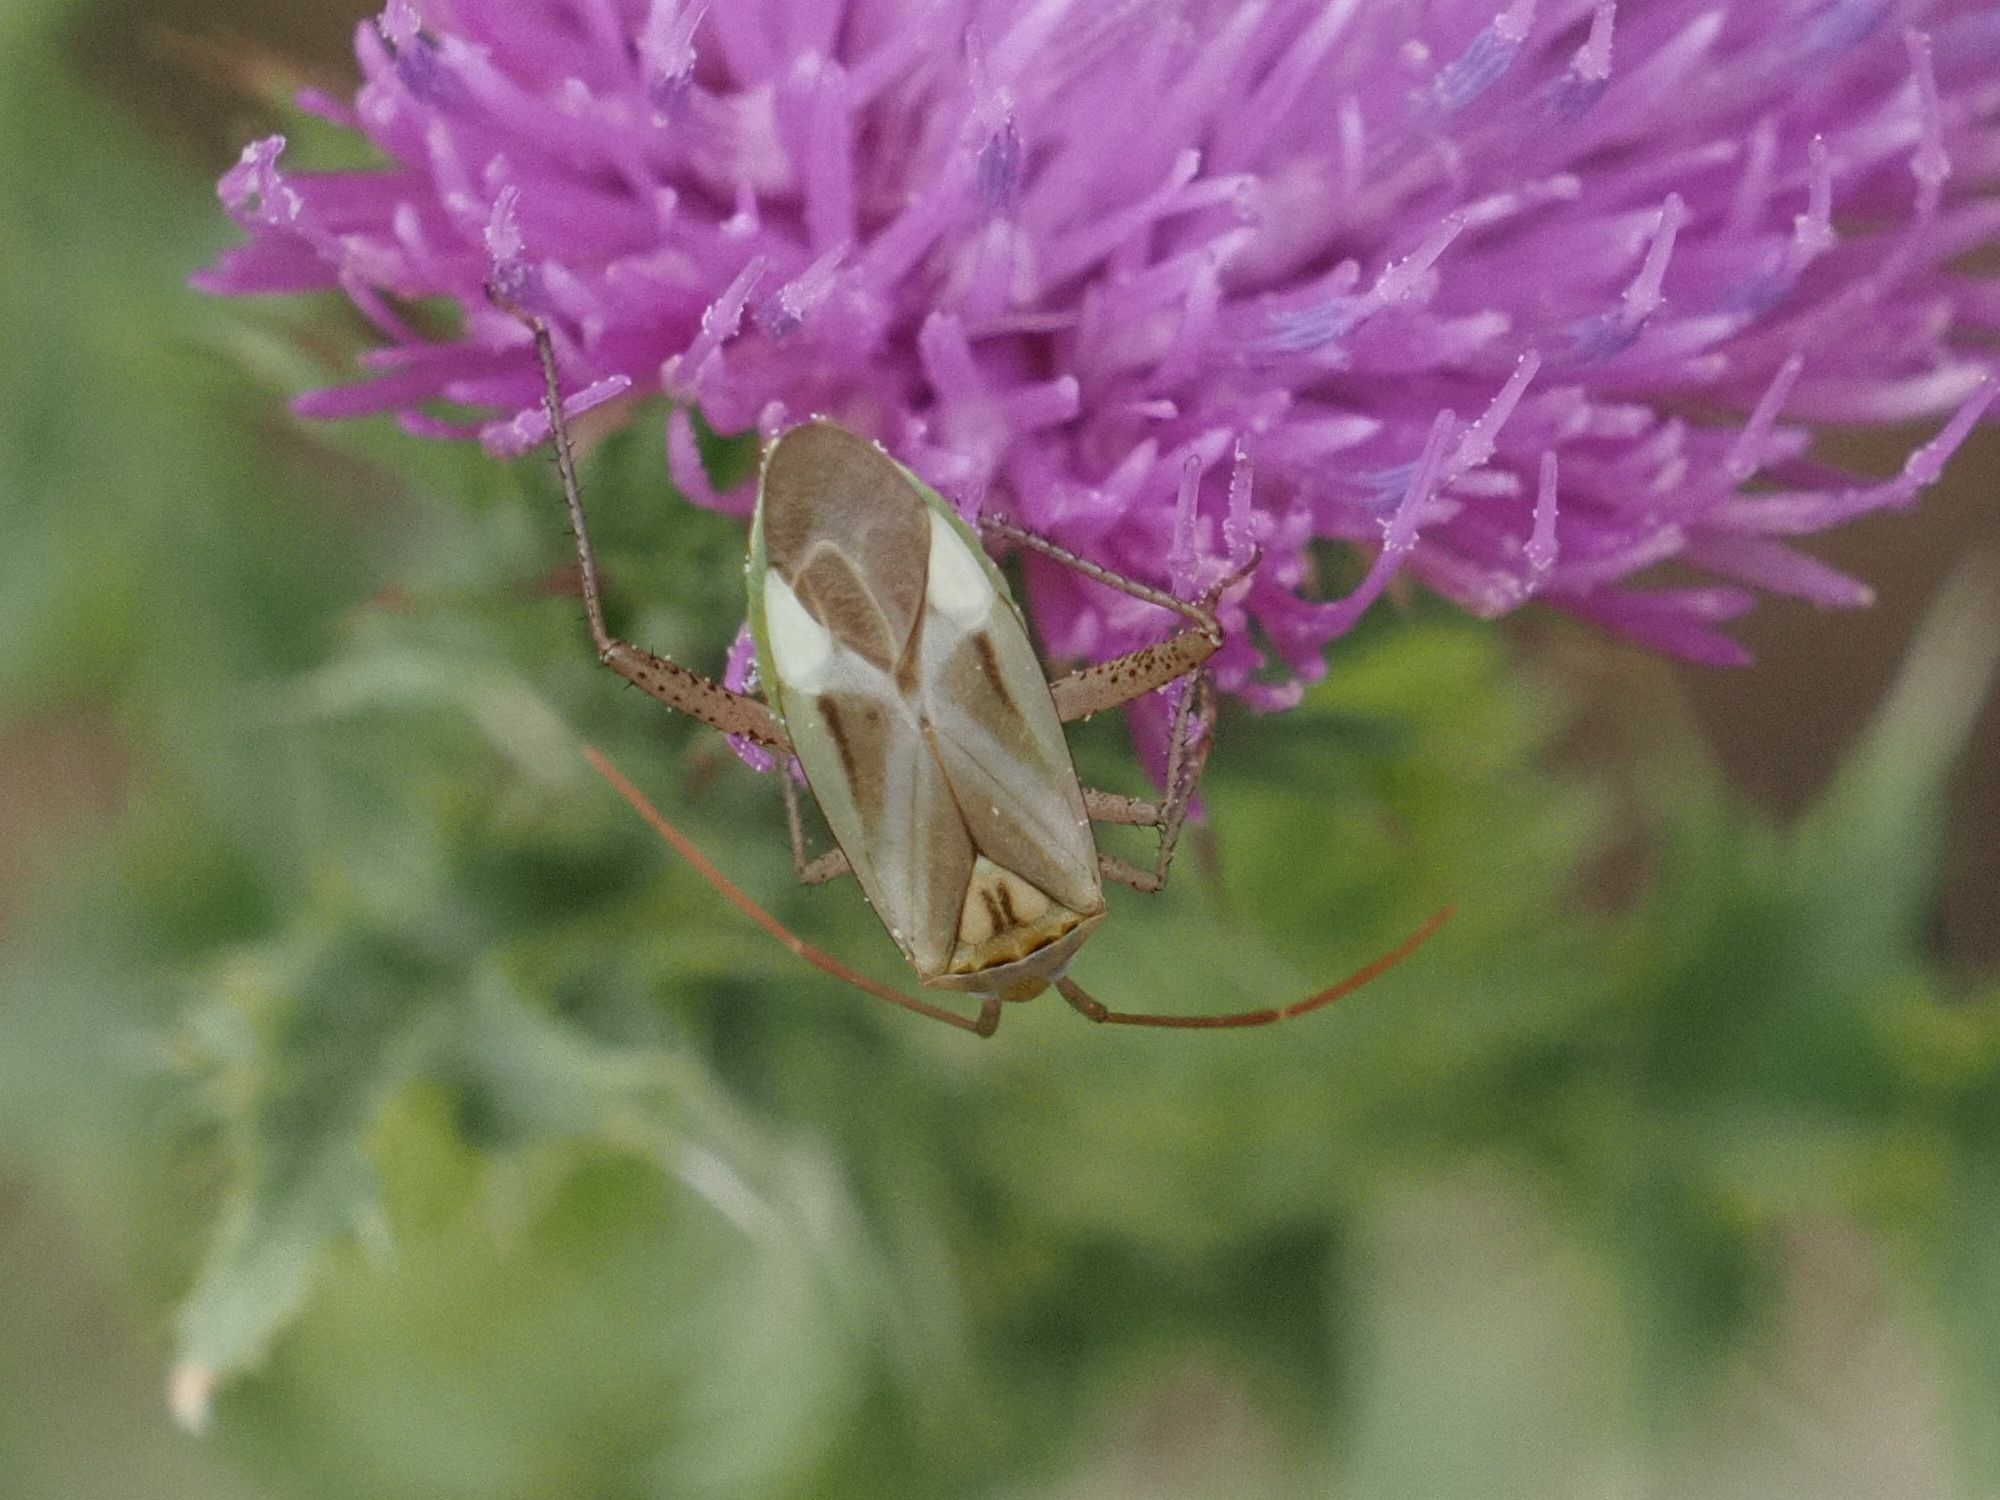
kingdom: Animalia
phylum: Arthropoda
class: Insecta
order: Hemiptera
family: Miridae
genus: Adelphocoris
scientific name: Adelphocoris lineolatus
